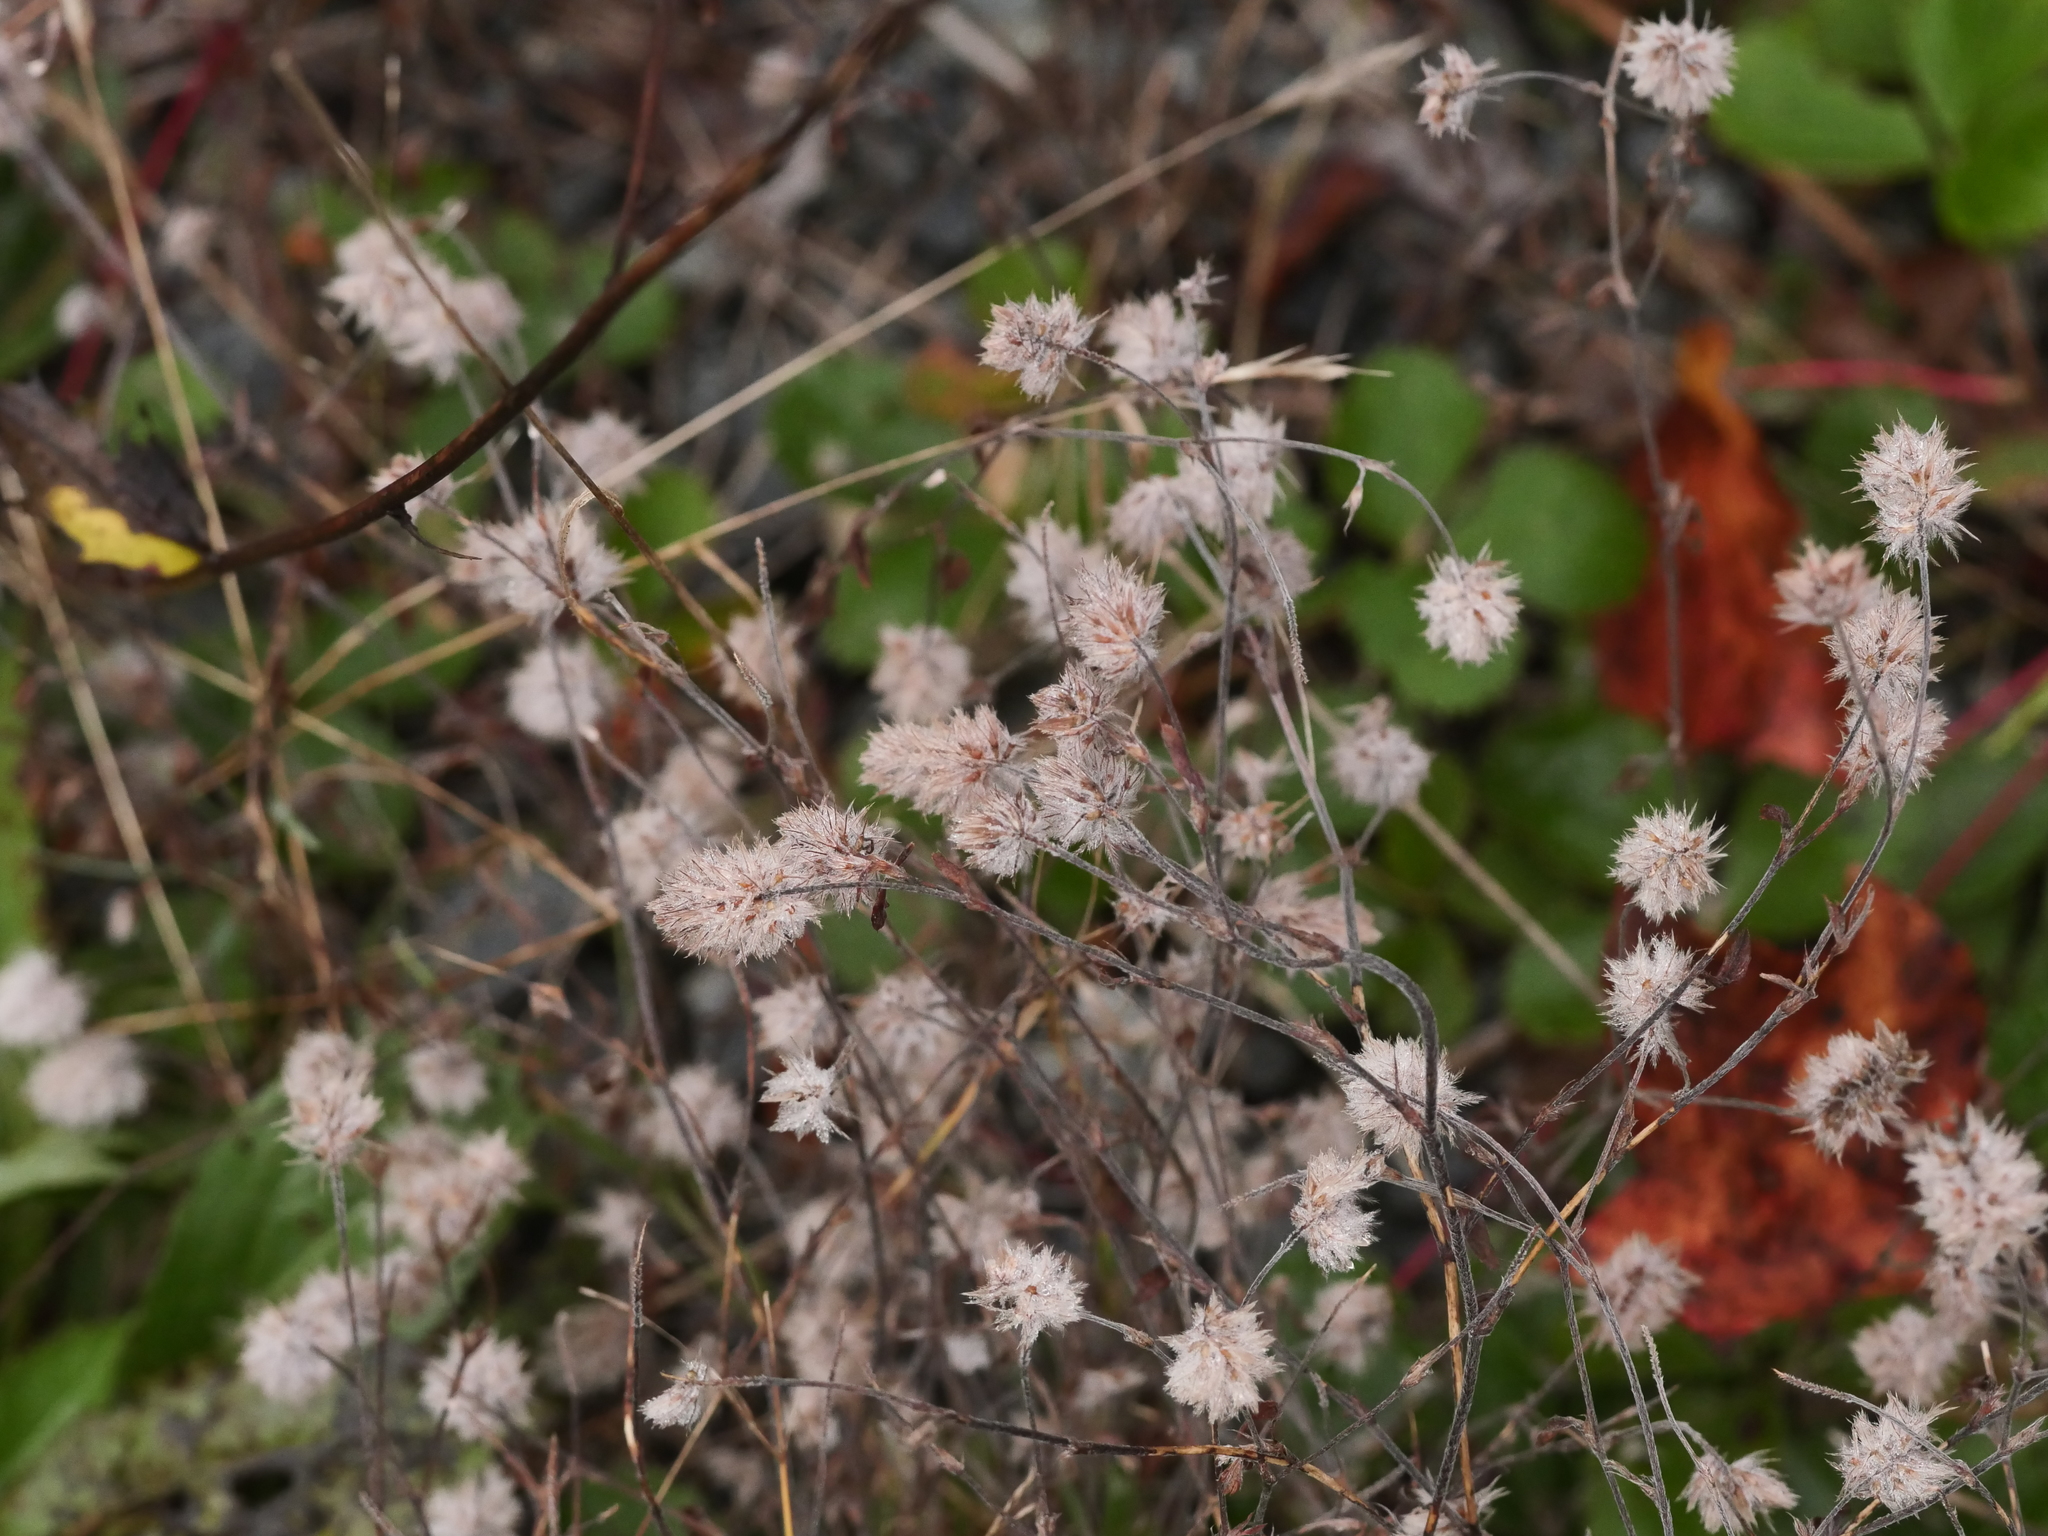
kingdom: Plantae
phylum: Tracheophyta
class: Magnoliopsida
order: Fabales
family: Fabaceae
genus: Trifolium
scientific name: Trifolium arvense
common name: Hare's-foot clover
